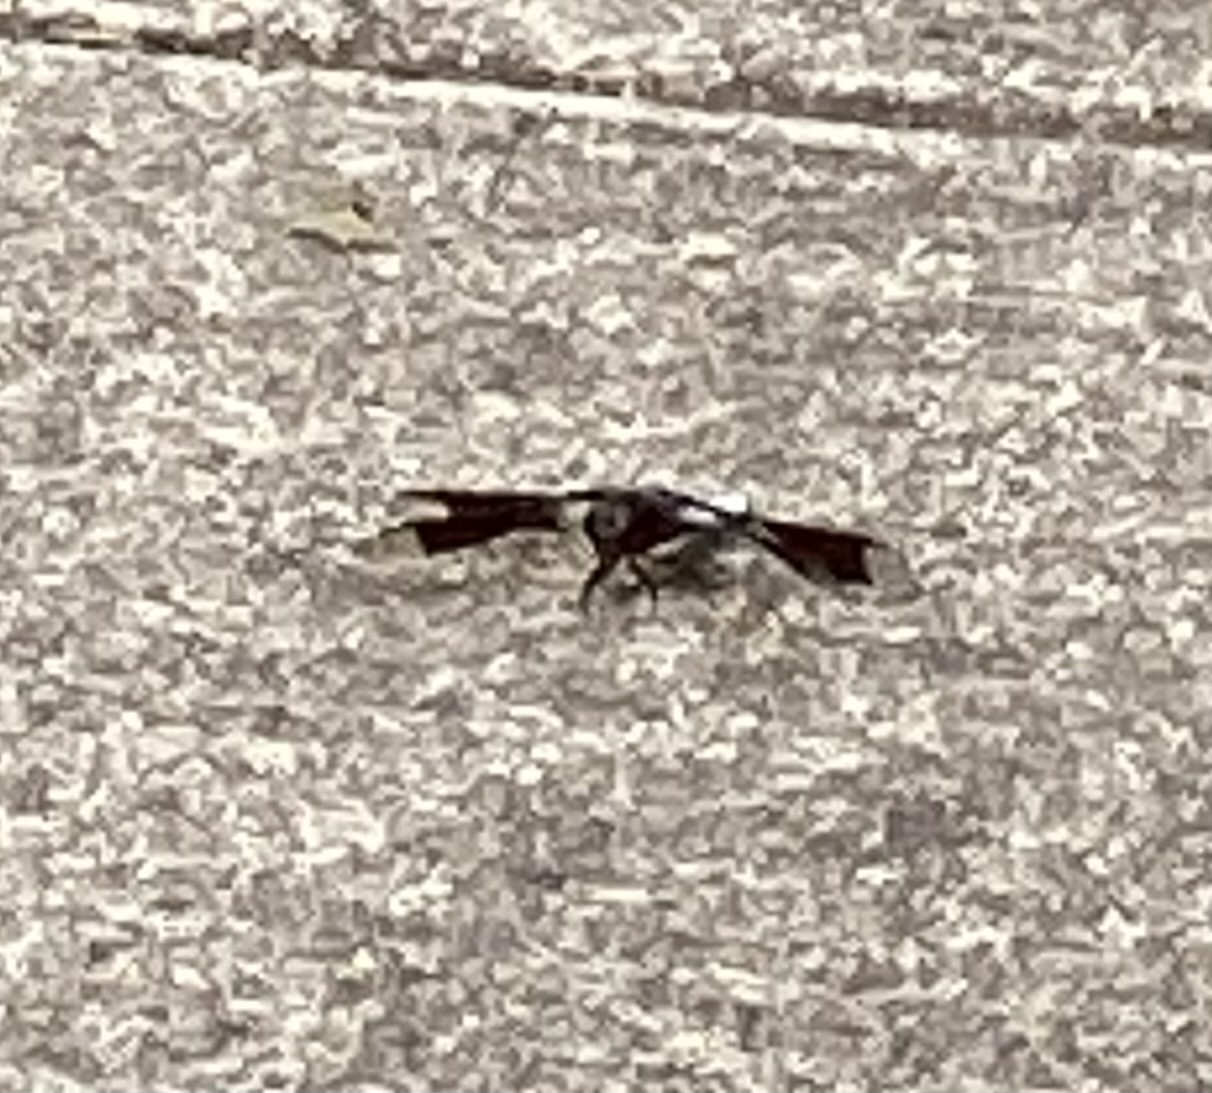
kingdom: Animalia
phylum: Arthropoda
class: Insecta
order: Odonata
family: Libellulidae
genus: Plathemis
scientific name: Plathemis lydia
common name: Common whitetail
